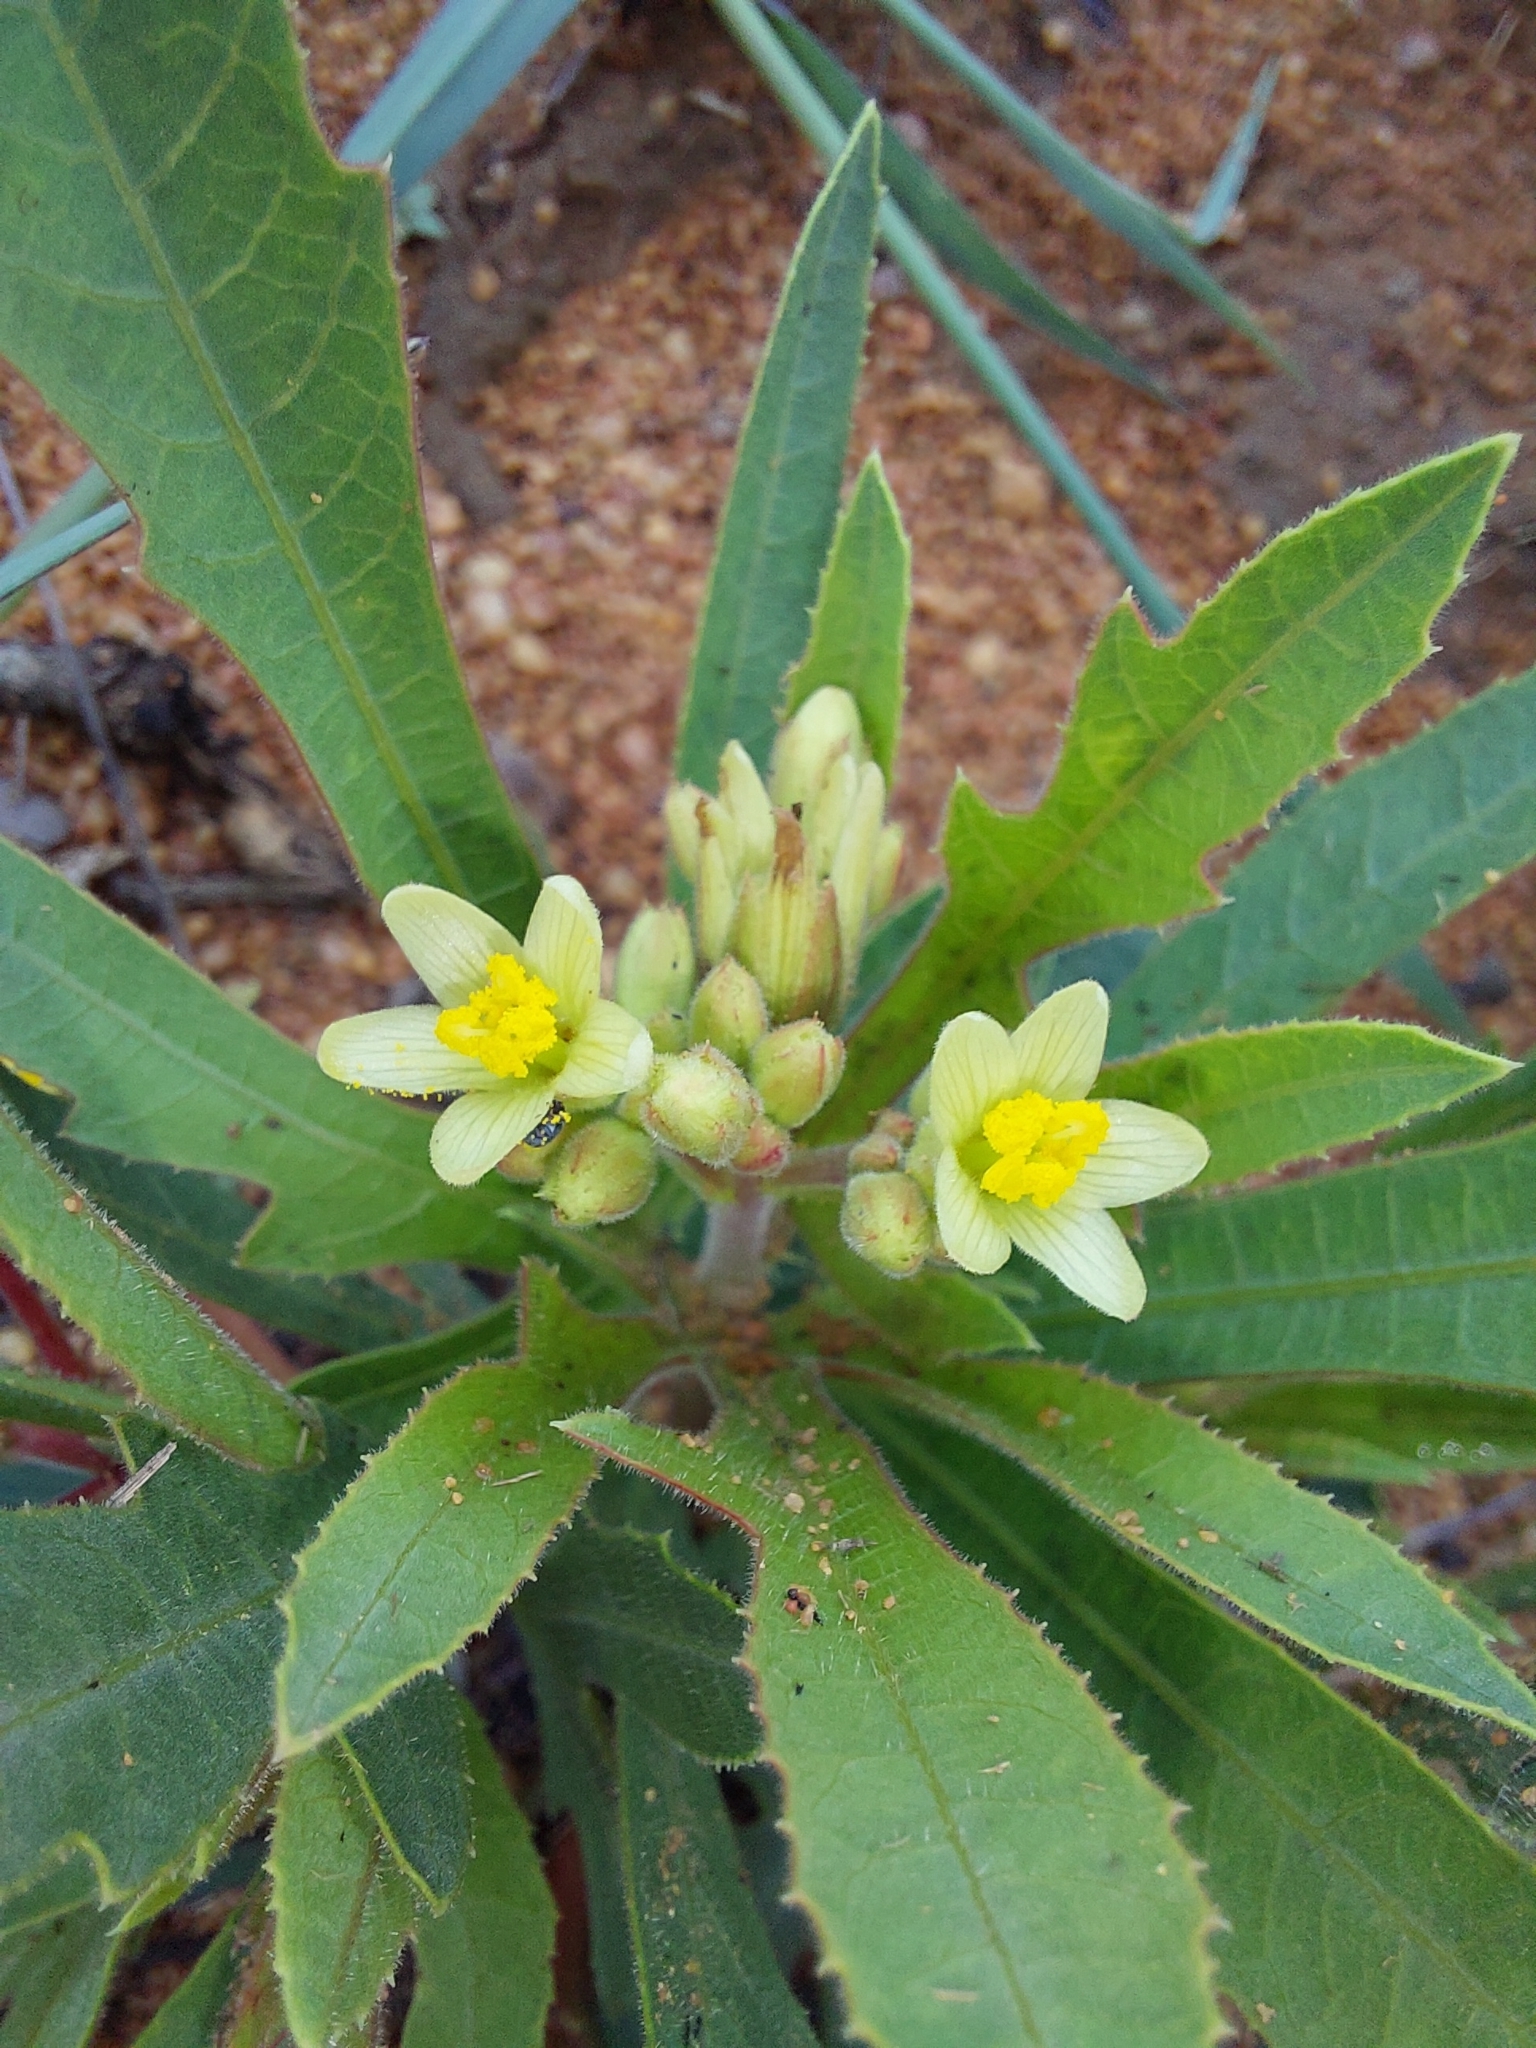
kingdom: Plantae
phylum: Tracheophyta
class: Magnoliopsida
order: Malpighiales
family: Euphorbiaceae
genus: Jatropha
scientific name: Jatropha erythropoda
